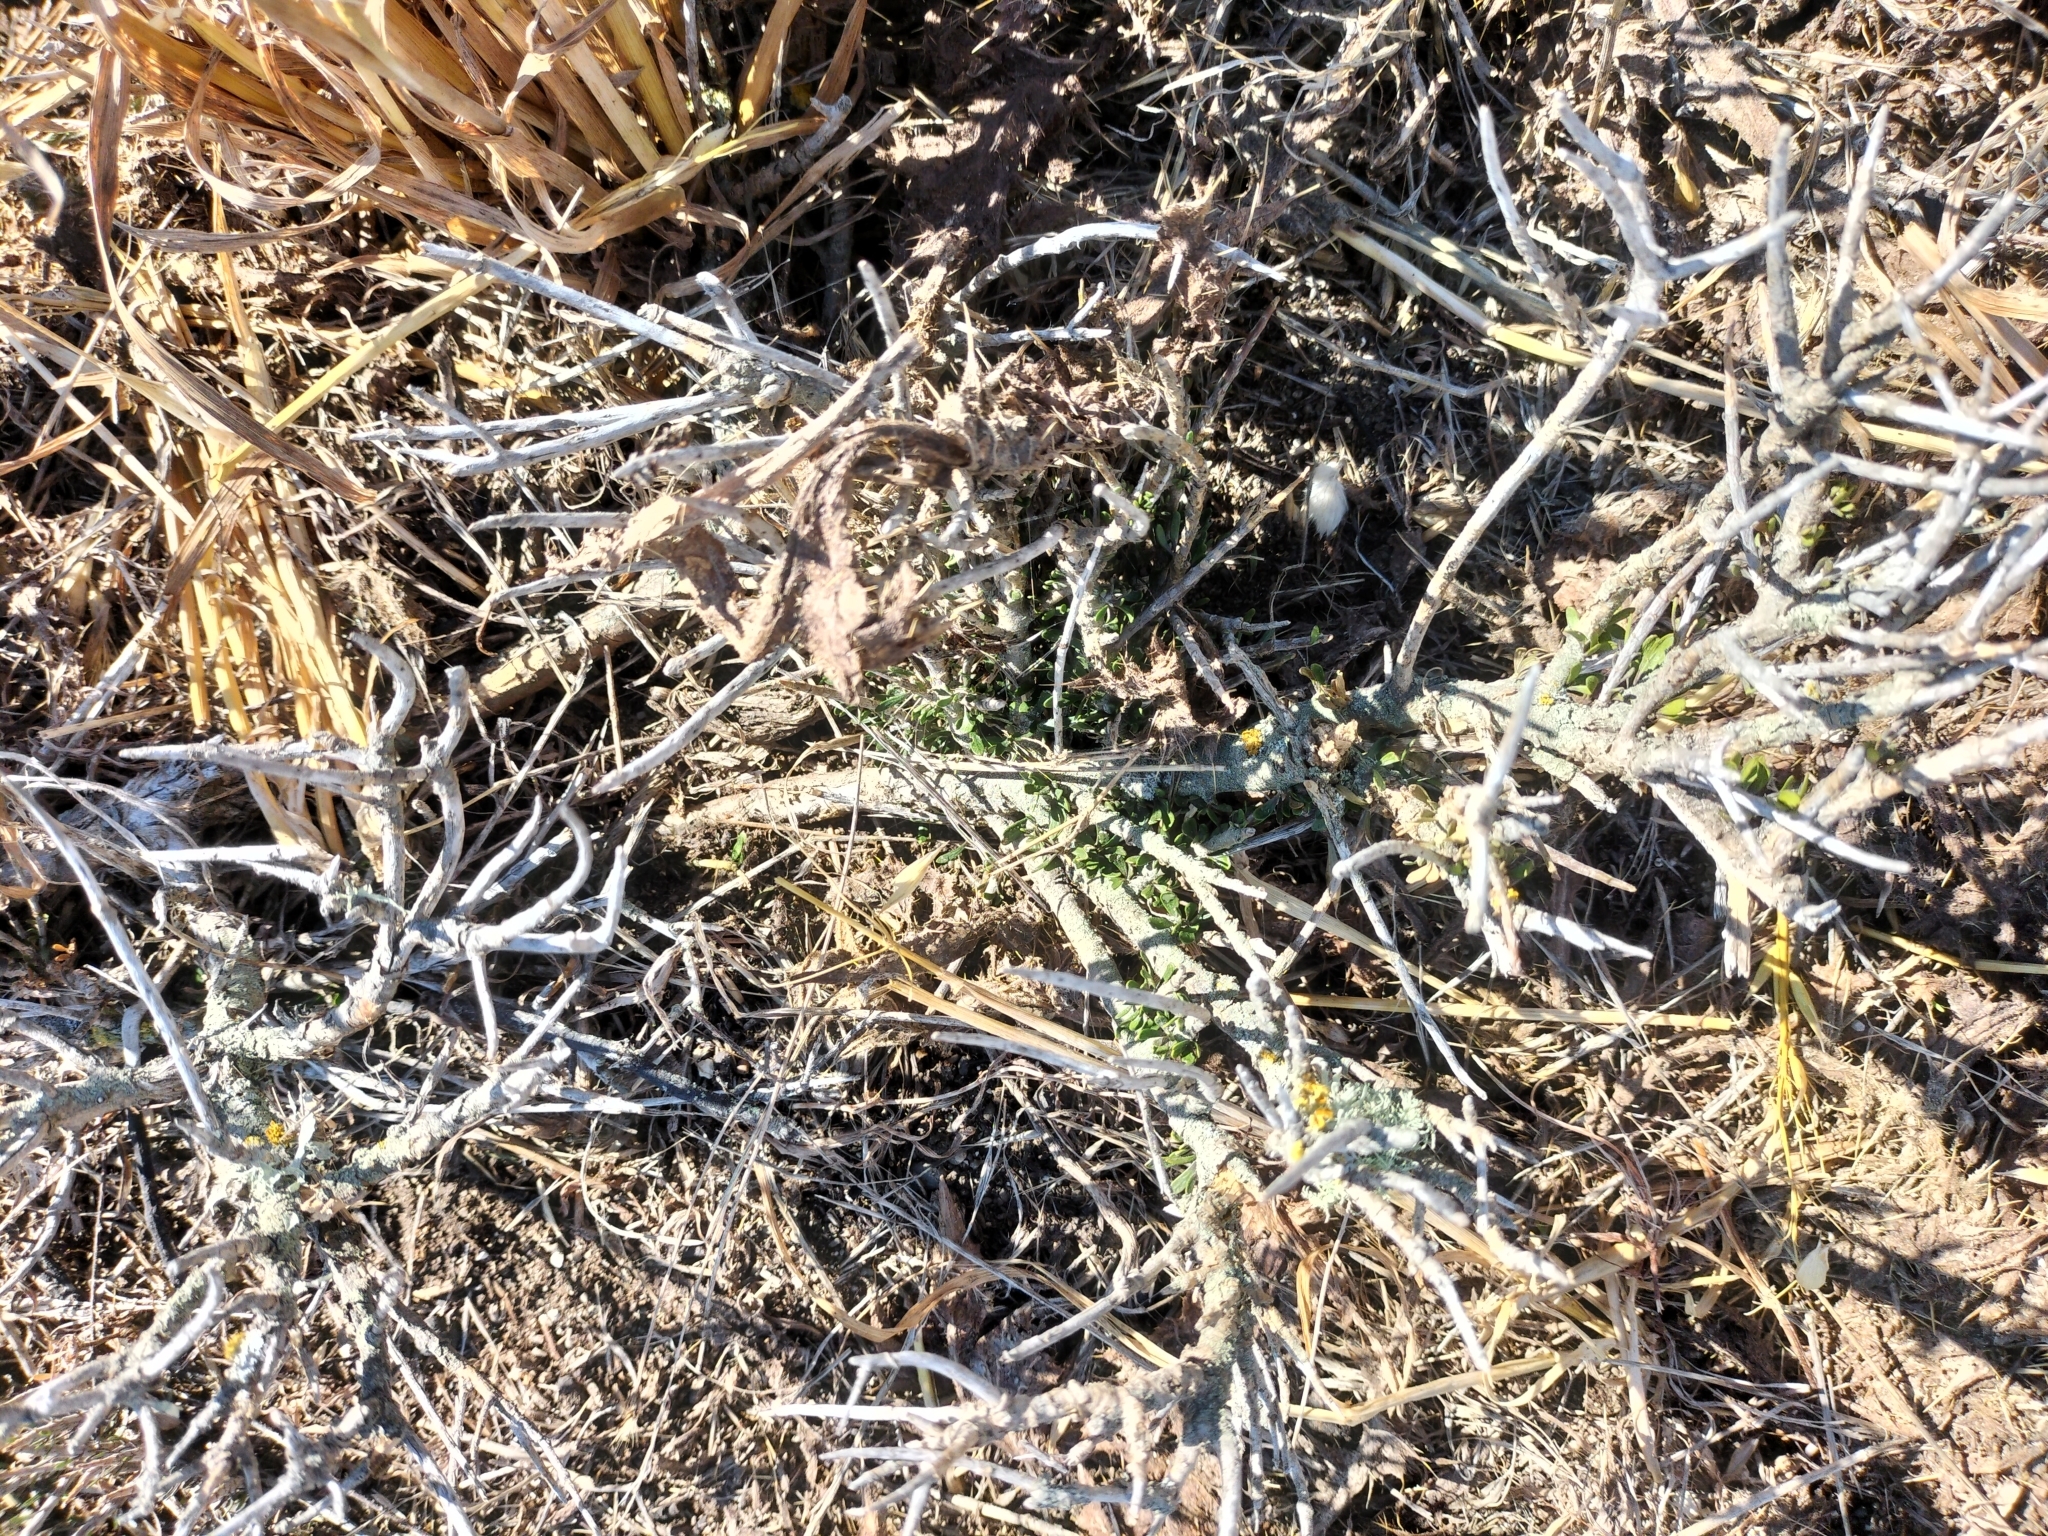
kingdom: Plantae
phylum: Tracheophyta
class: Magnoliopsida
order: Malpighiales
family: Violaceae
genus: Melicytus
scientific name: Melicytus alpinus
